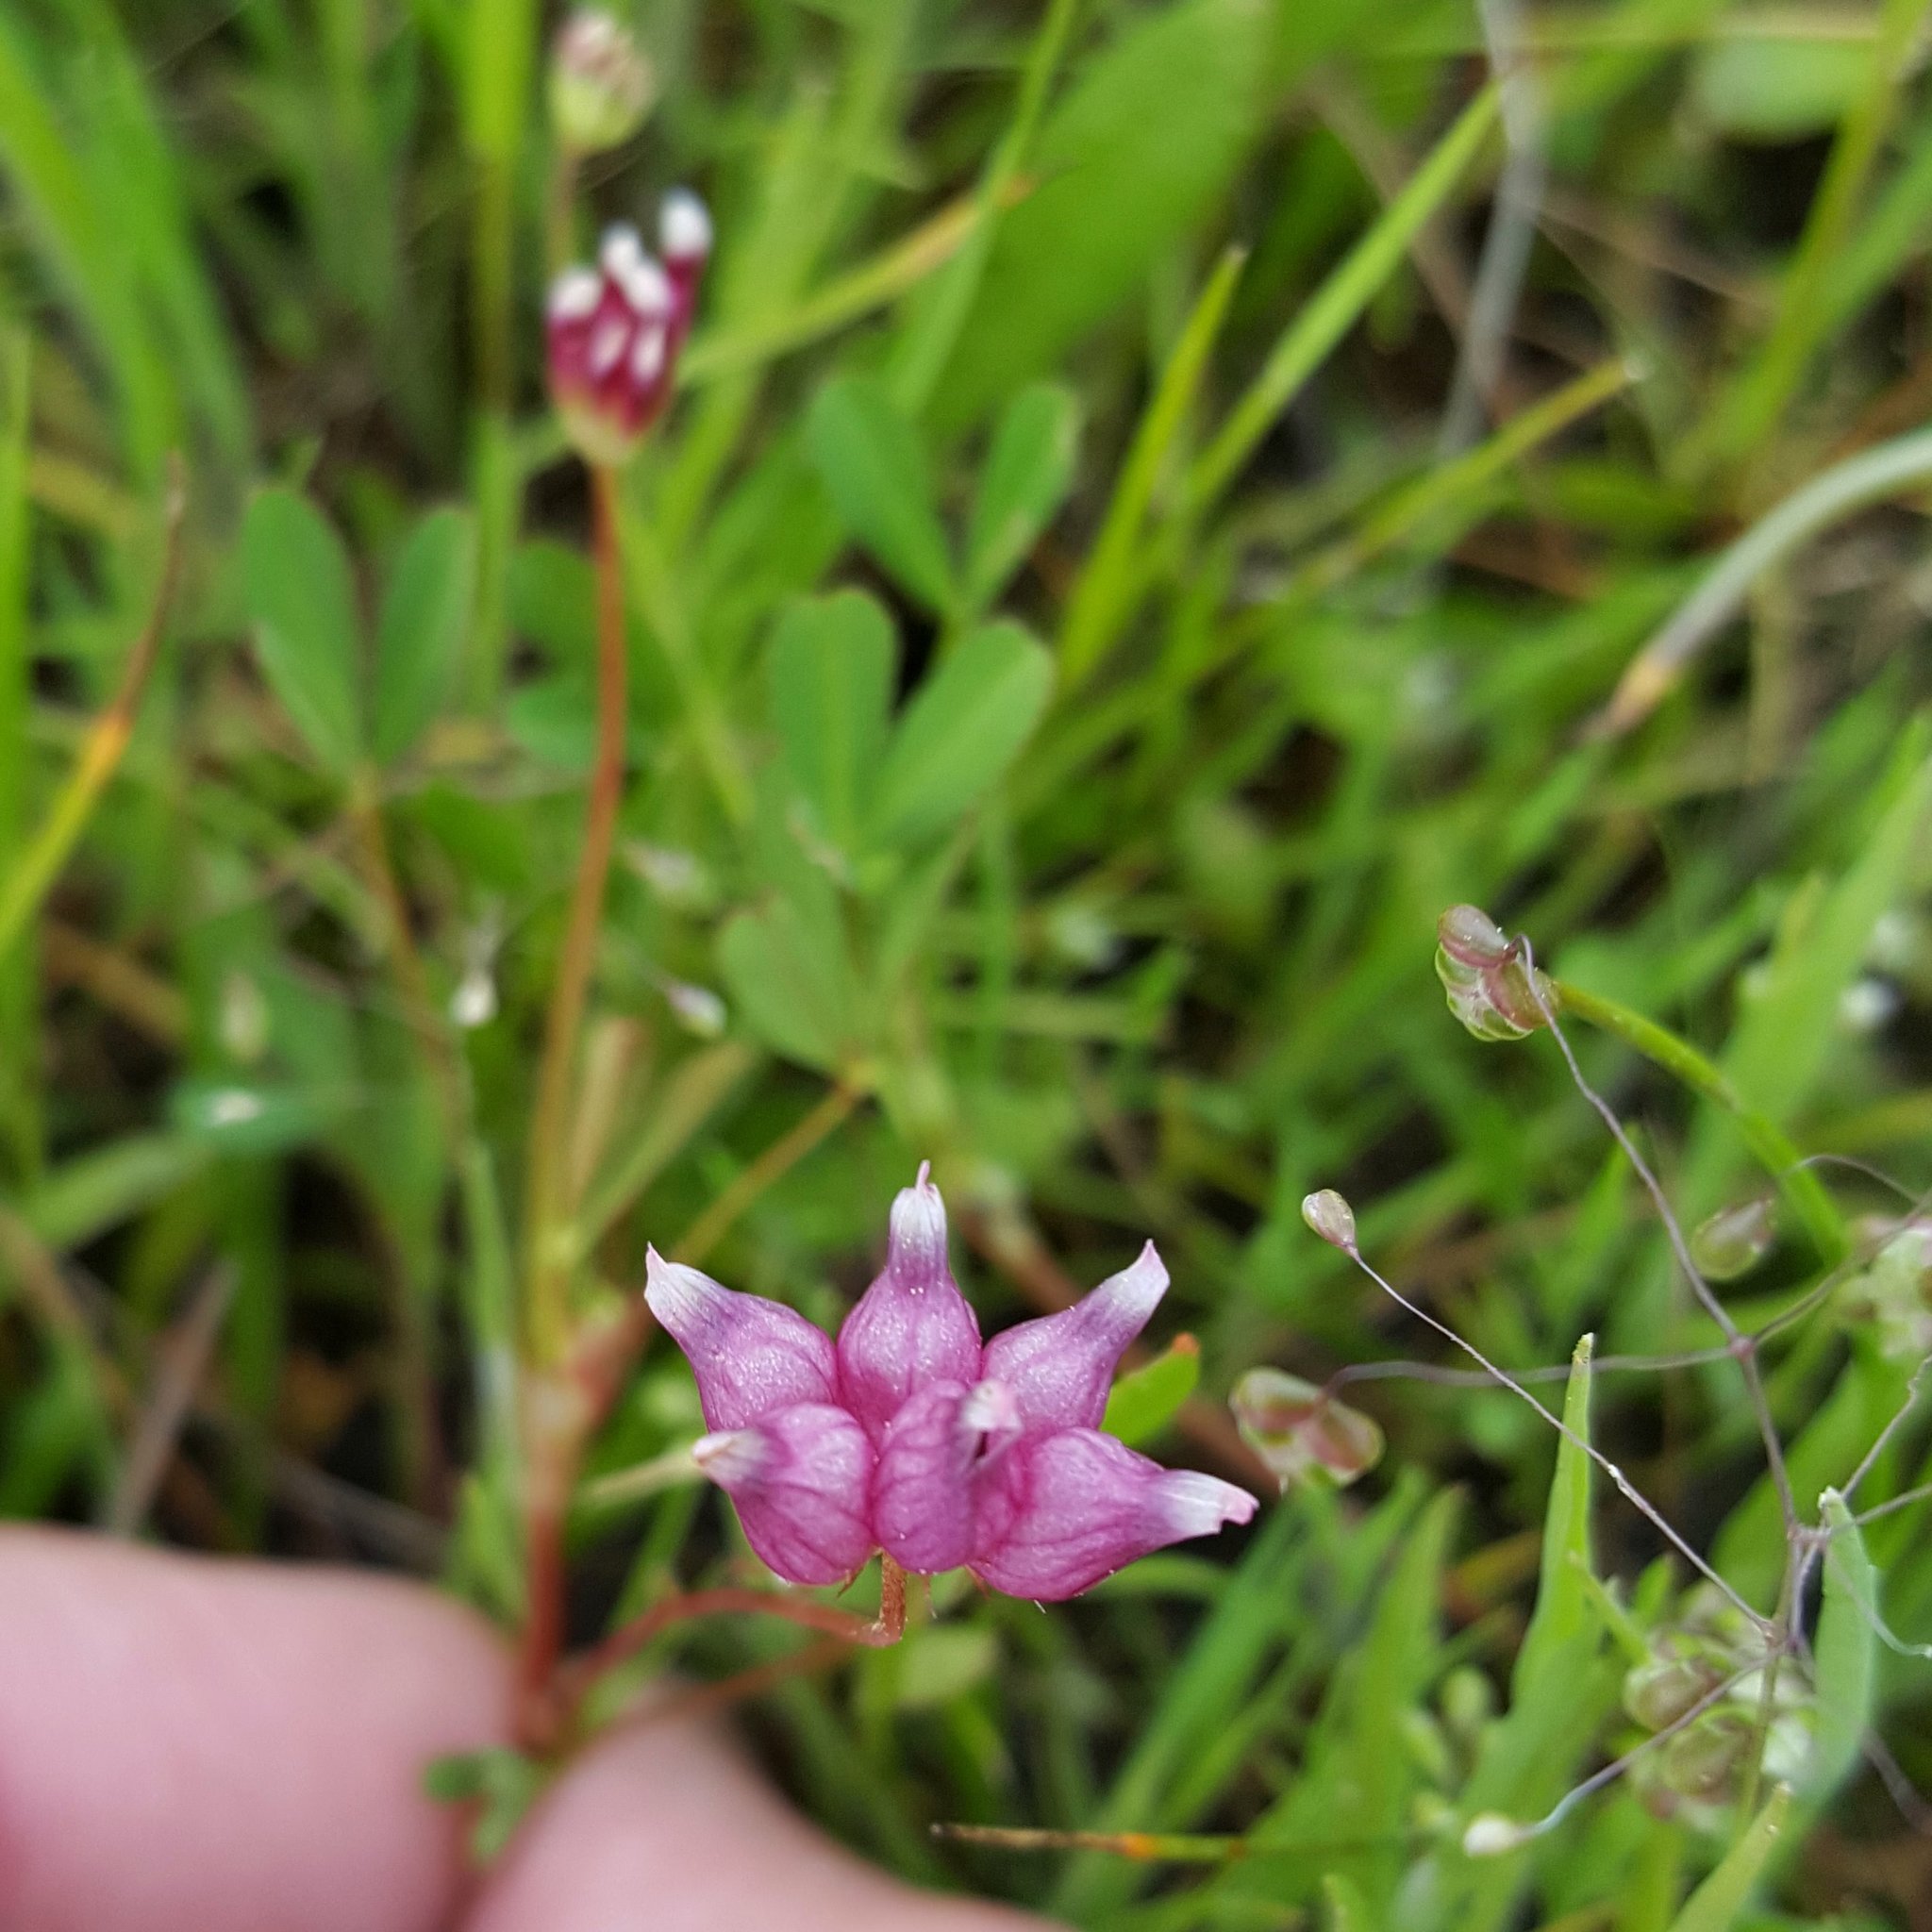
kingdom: Plantae
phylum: Tracheophyta
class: Magnoliopsida
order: Fabales
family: Fabaceae
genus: Trifolium
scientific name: Trifolium depauperatum
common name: Poverty clover
